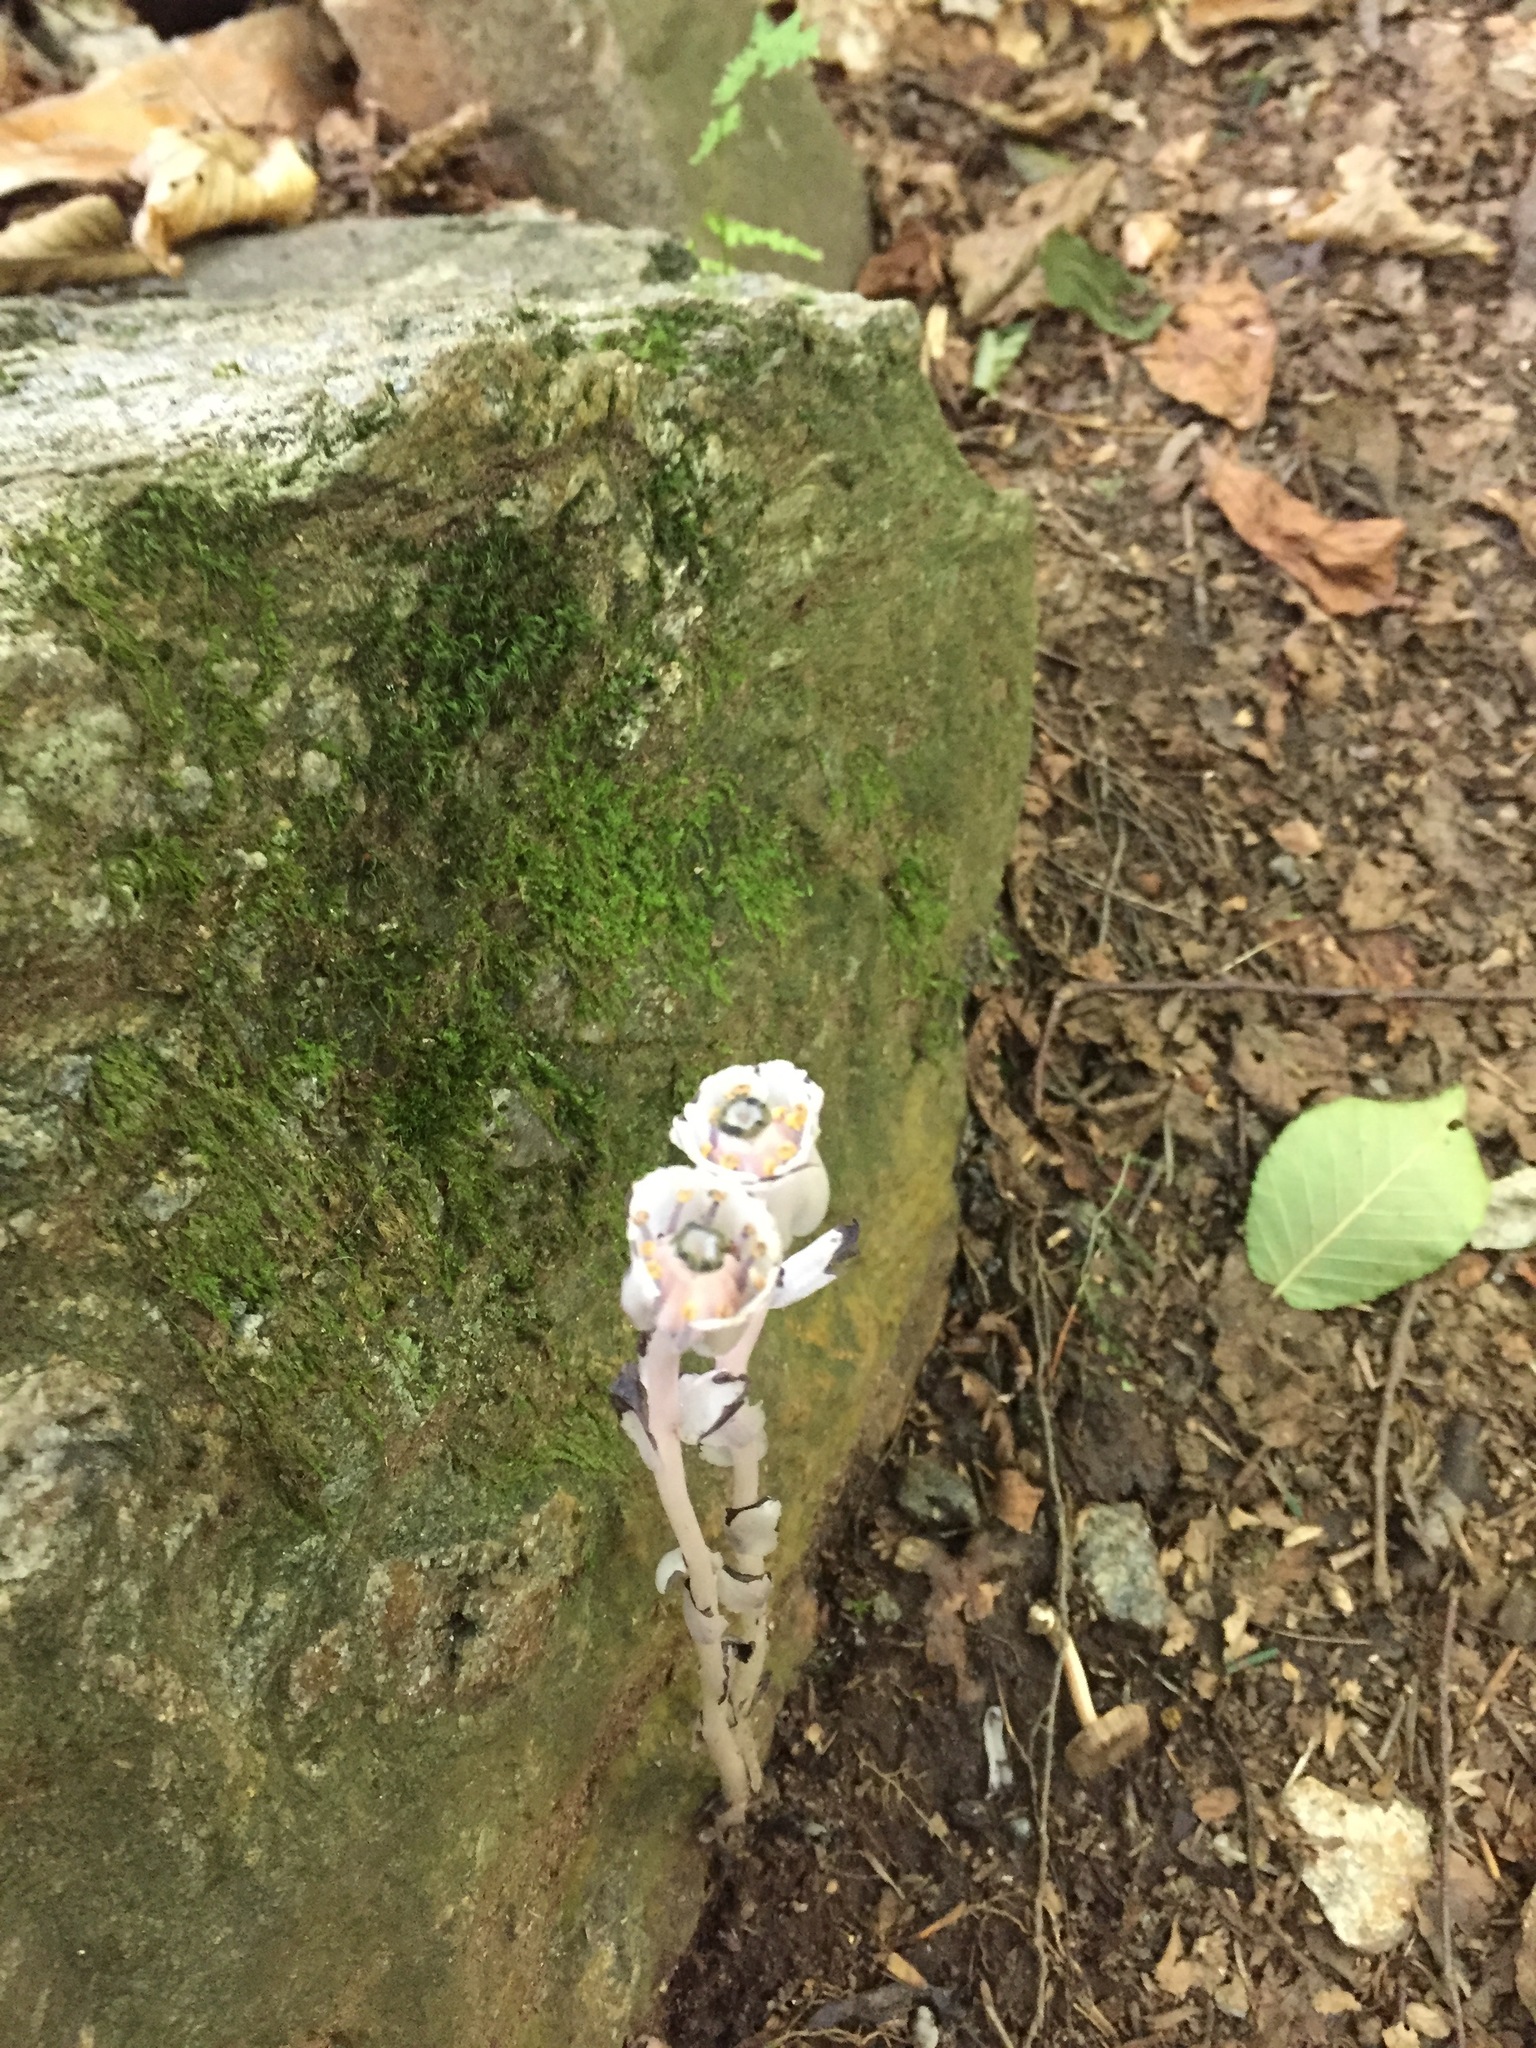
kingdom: Plantae
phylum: Tracheophyta
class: Magnoliopsida
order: Ericales
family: Ericaceae
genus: Monotropa
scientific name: Monotropa uniflora
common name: Convulsion root
